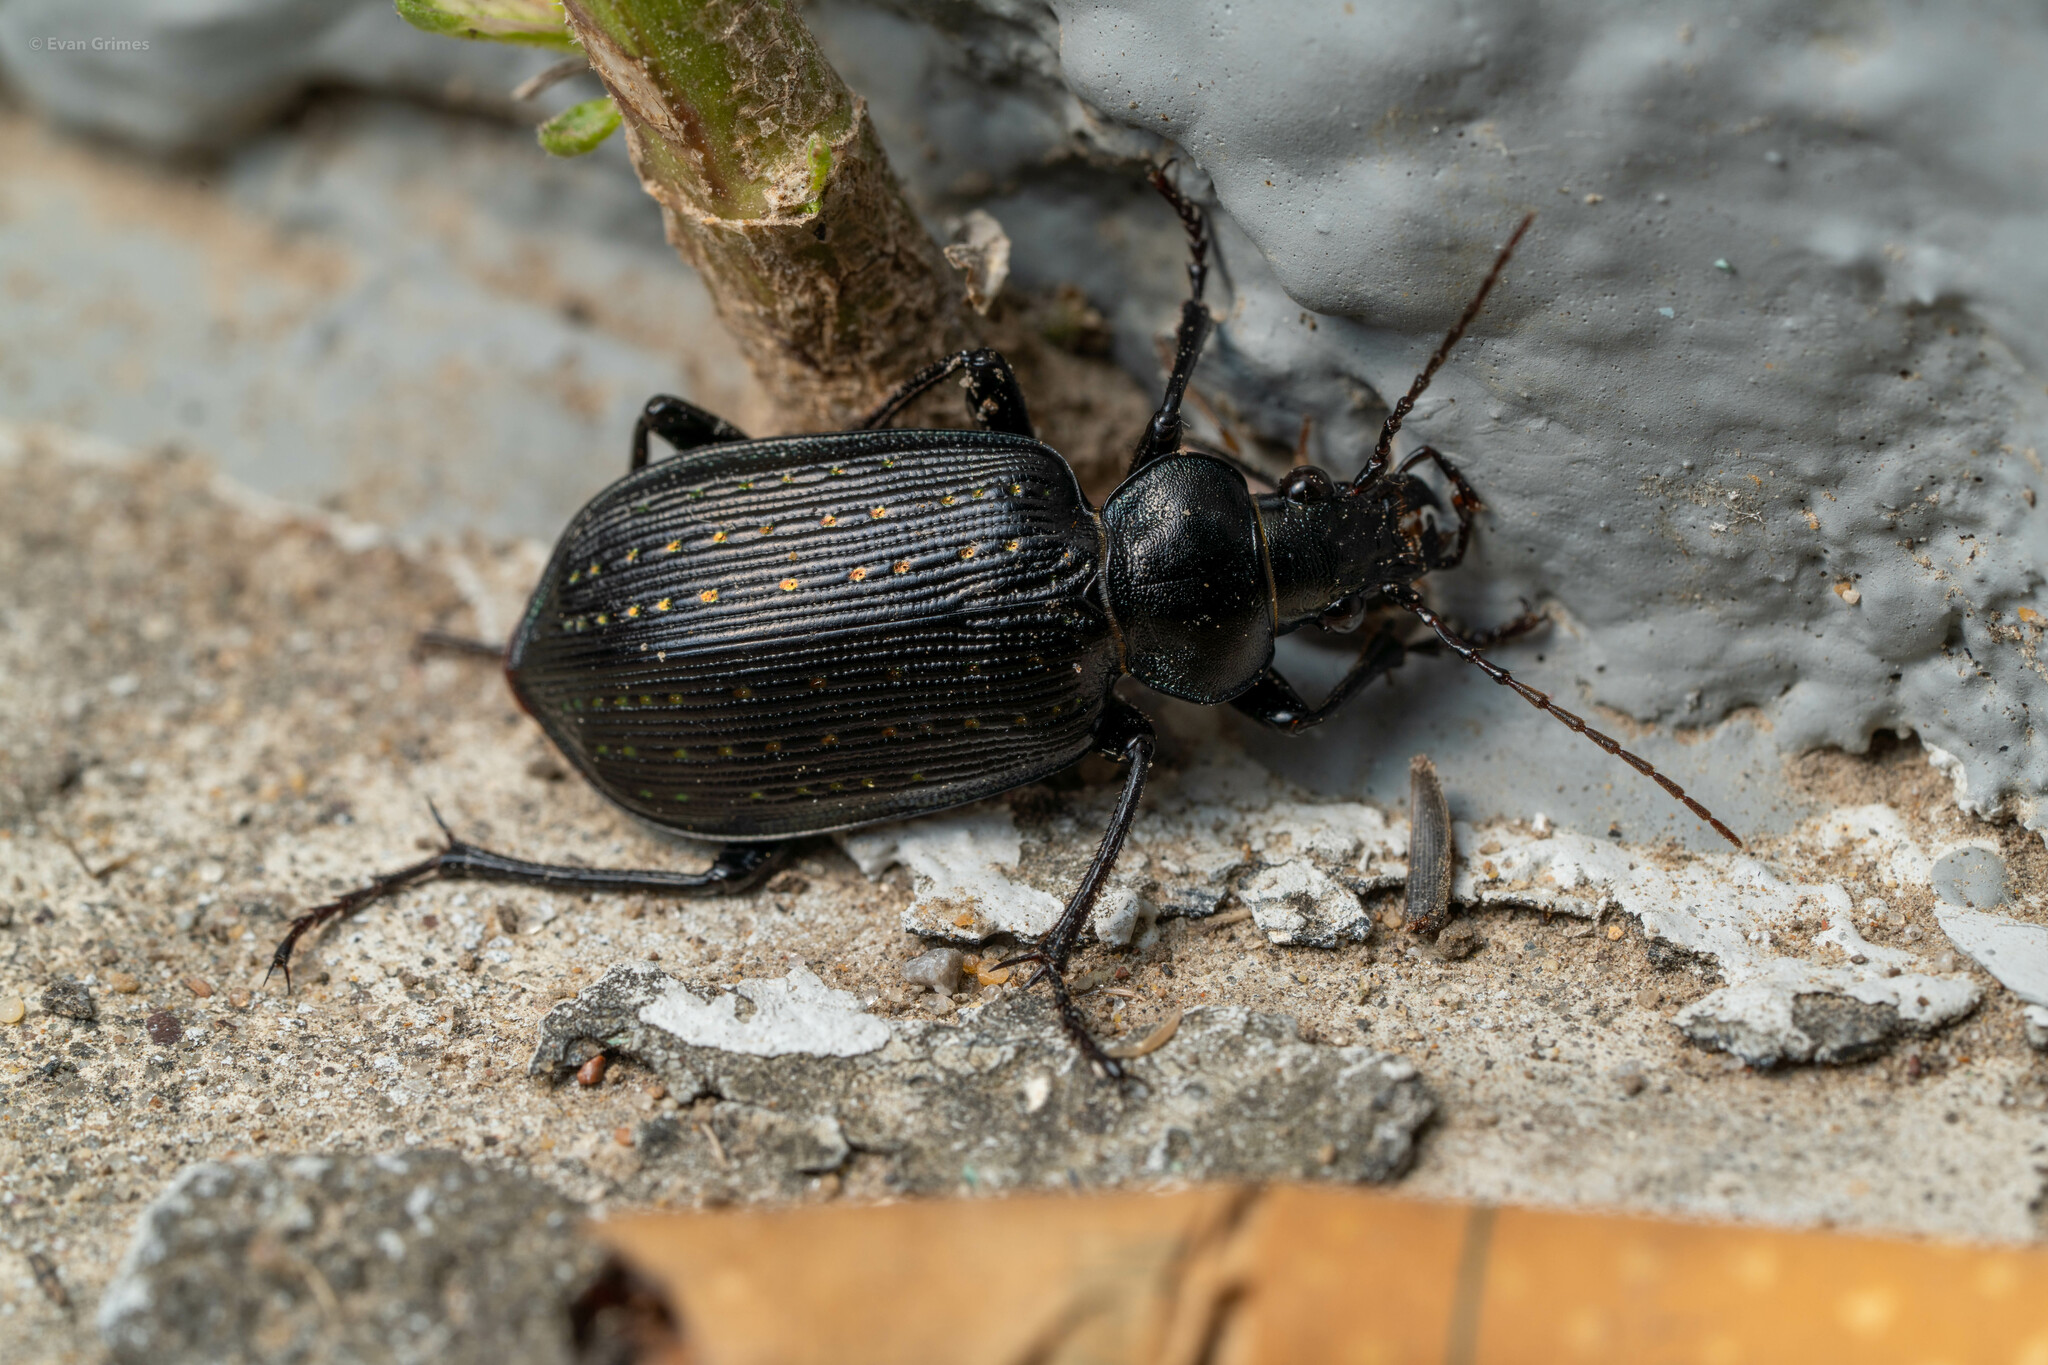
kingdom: Animalia
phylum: Arthropoda
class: Insecta
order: Coleoptera
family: Carabidae
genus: Calosoma
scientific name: Calosoma sayi
